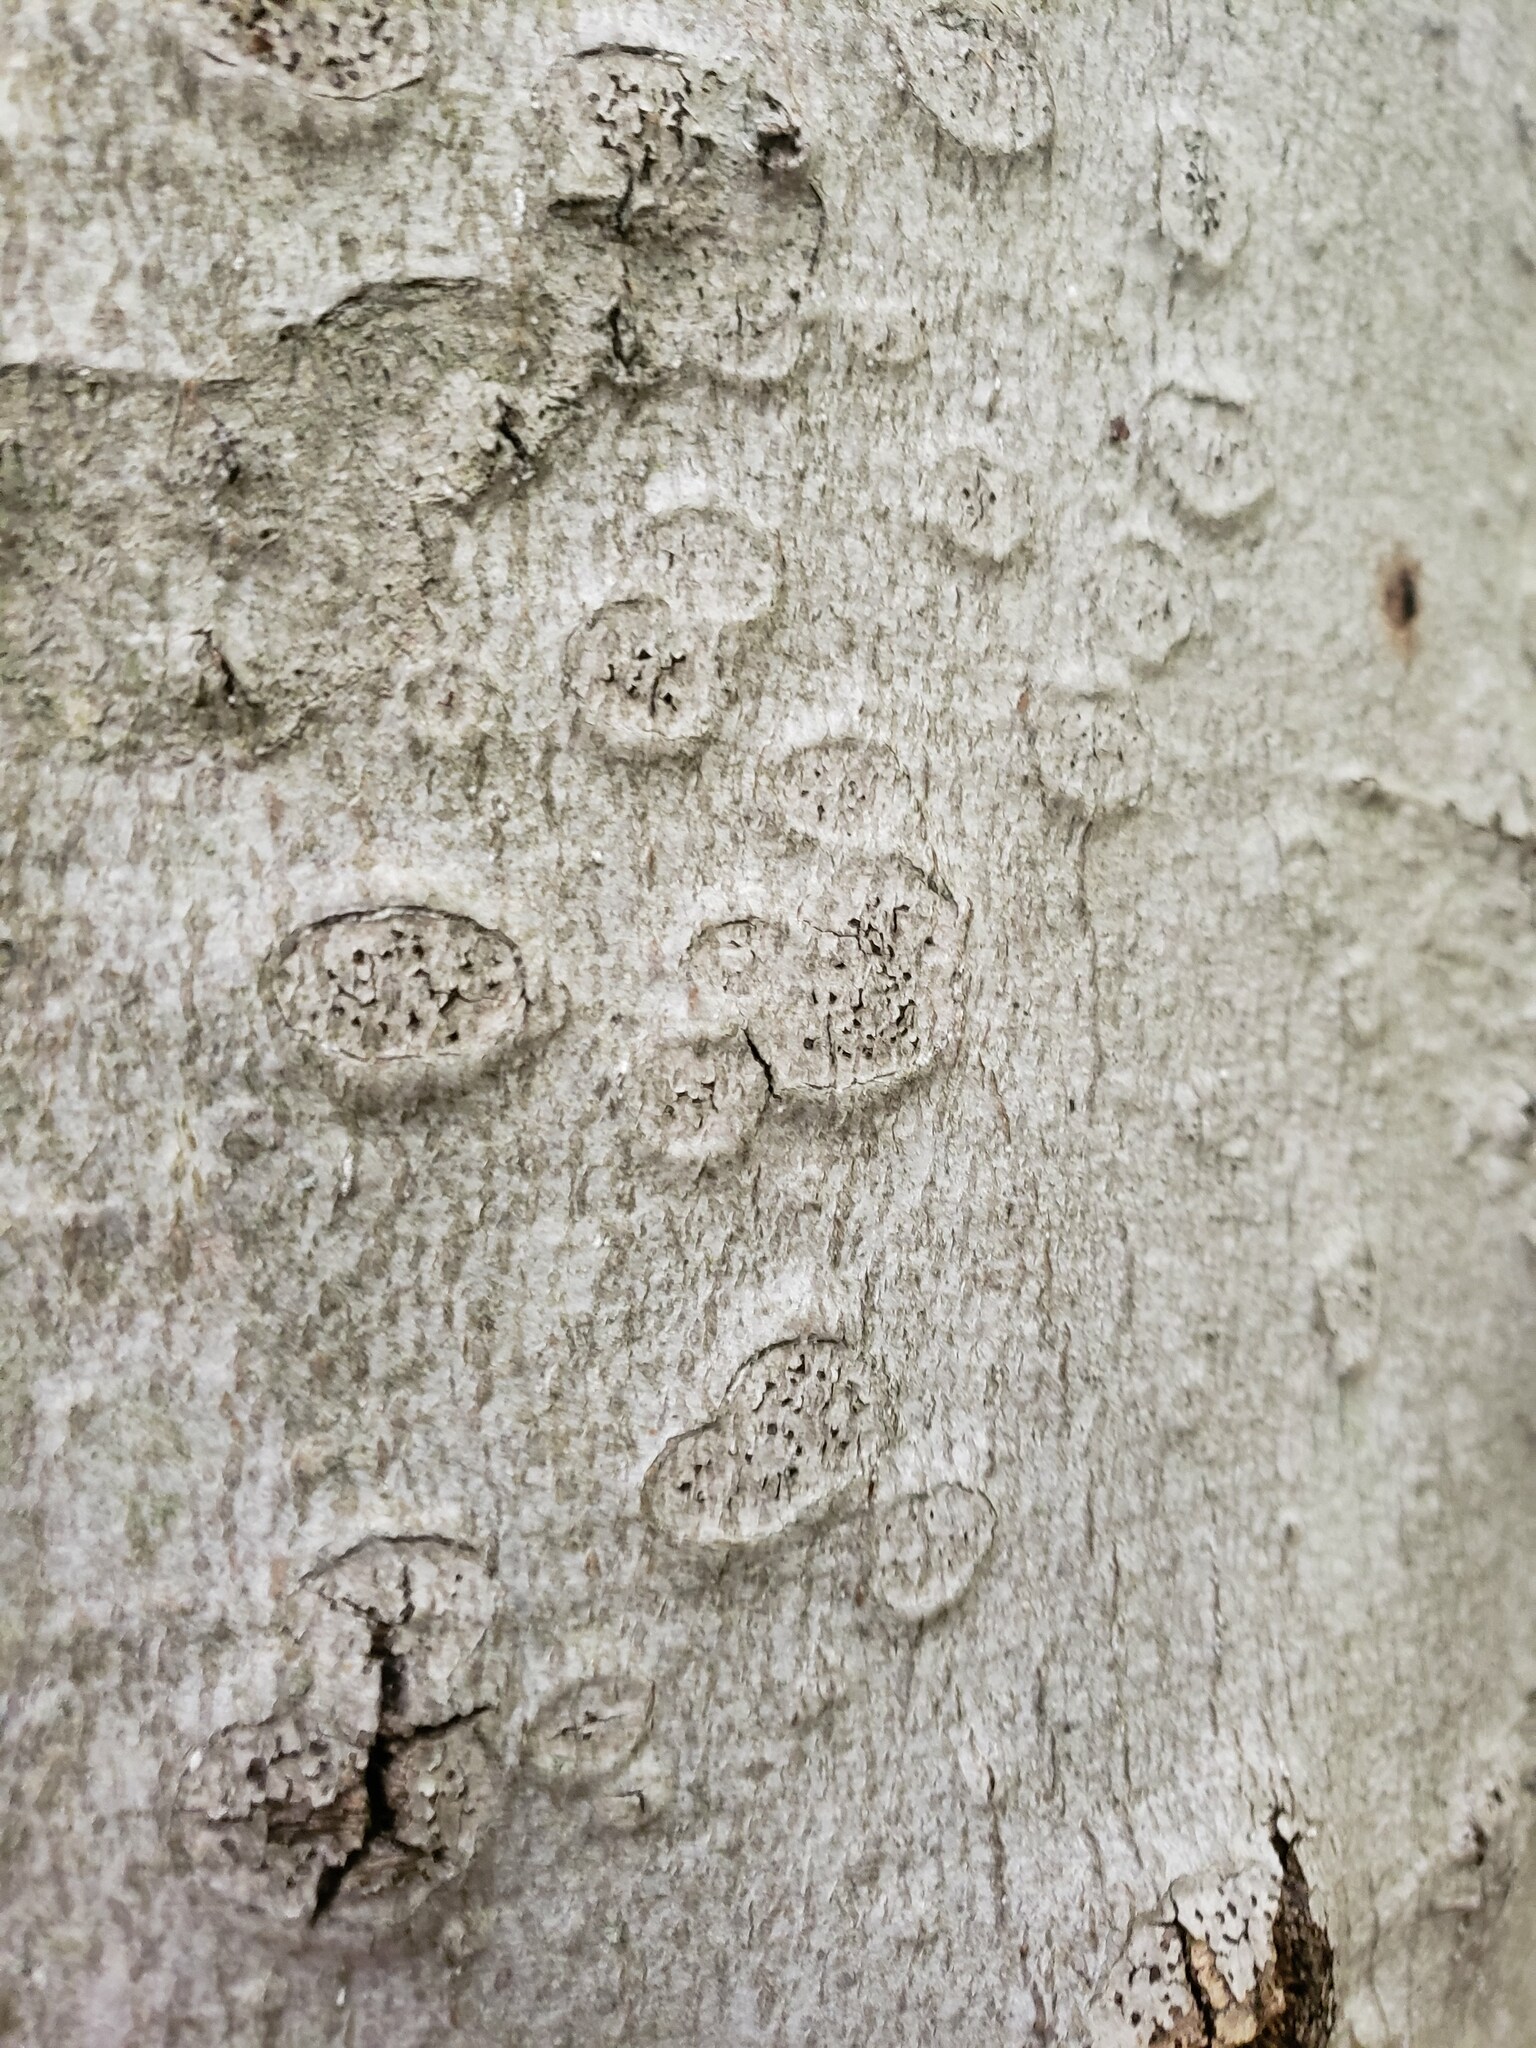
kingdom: Fungi
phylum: Ascomycota
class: Sordariomycetes
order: Hypocreales
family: Nectriaceae
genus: Neonectria
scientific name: Neonectria faginata
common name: Beech bark canker
